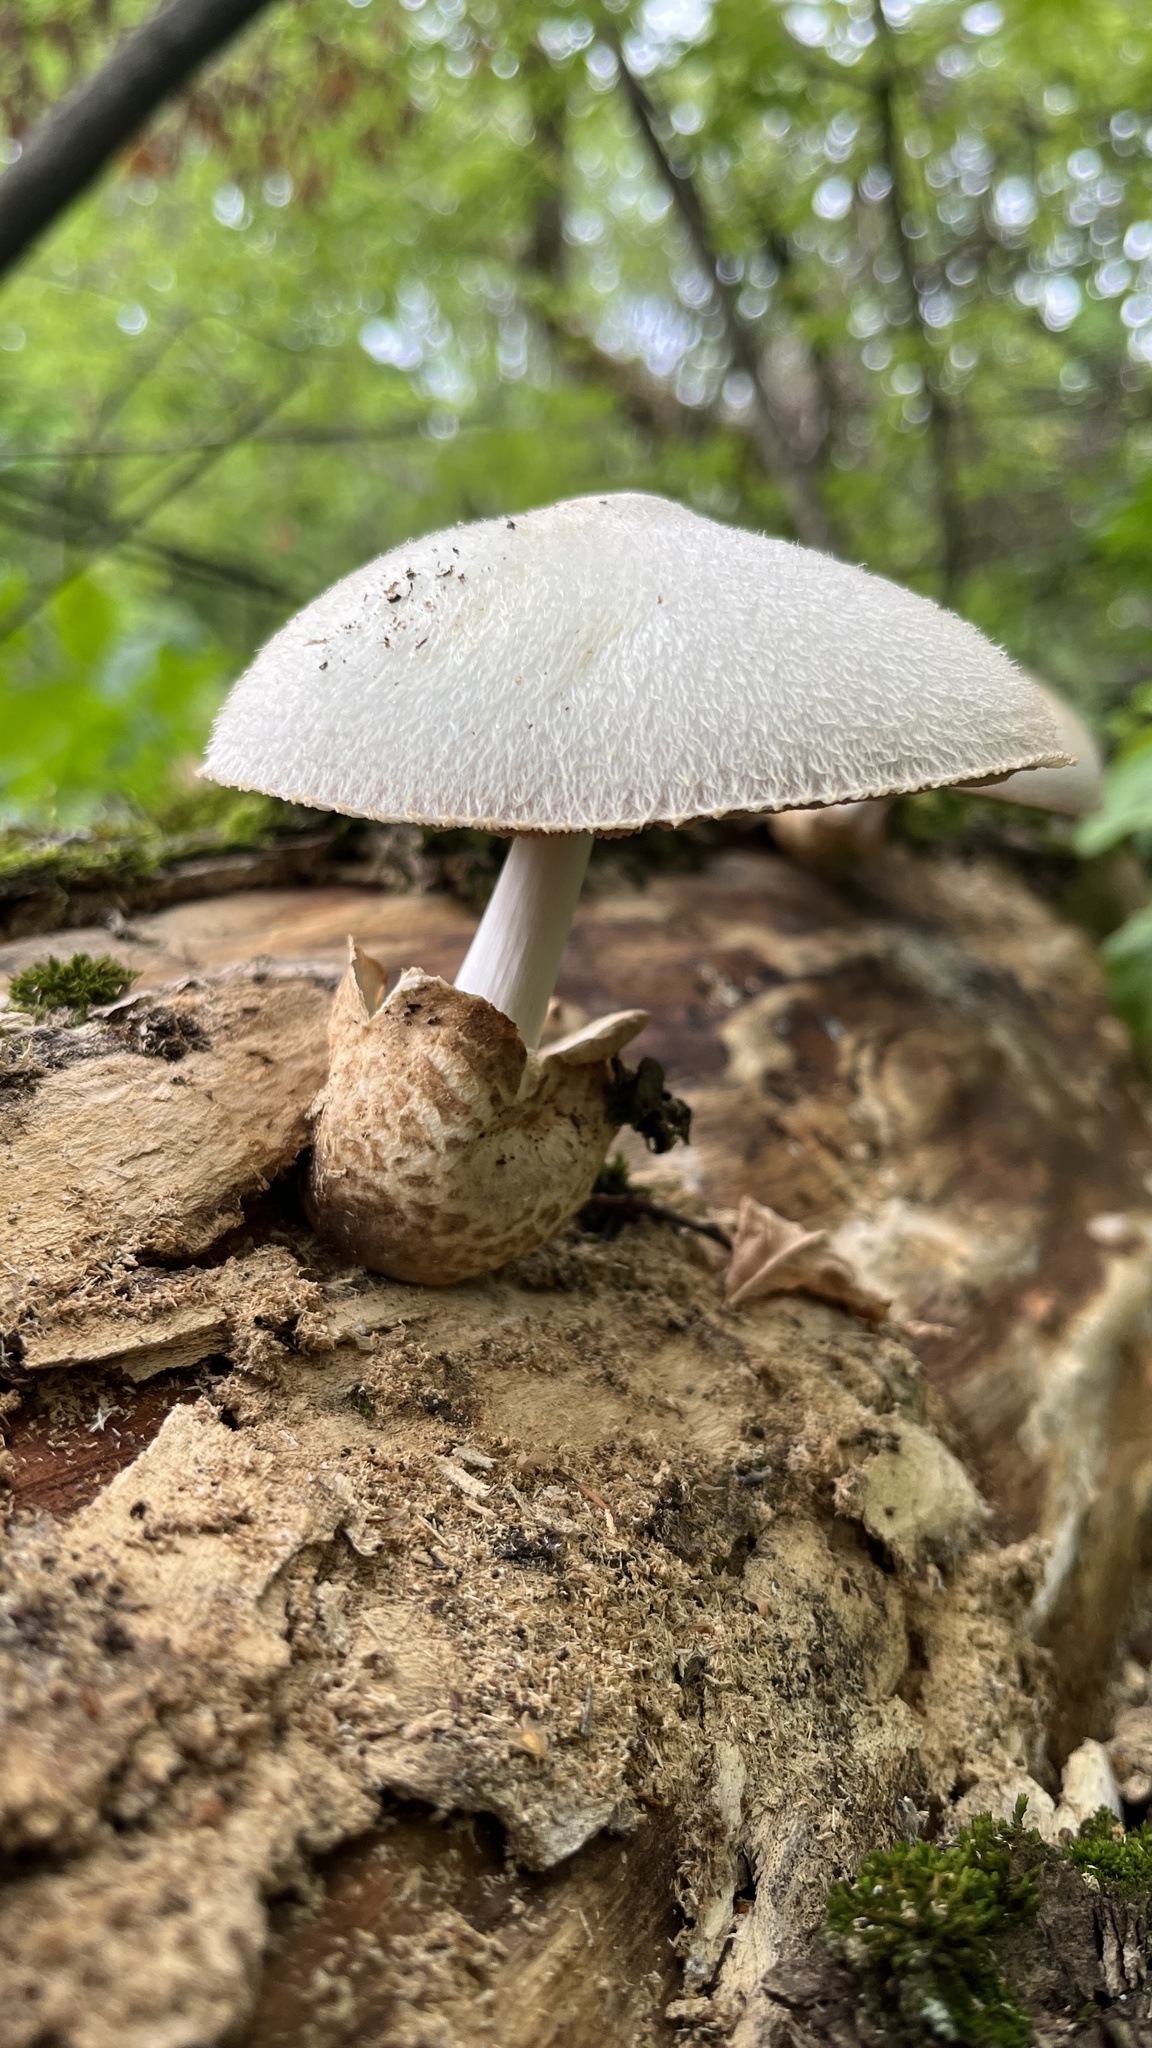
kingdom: Fungi
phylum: Basidiomycota
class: Agaricomycetes
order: Agaricales
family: Pluteaceae
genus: Volvariella
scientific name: Volvariella bombycina
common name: Silky rosegill
